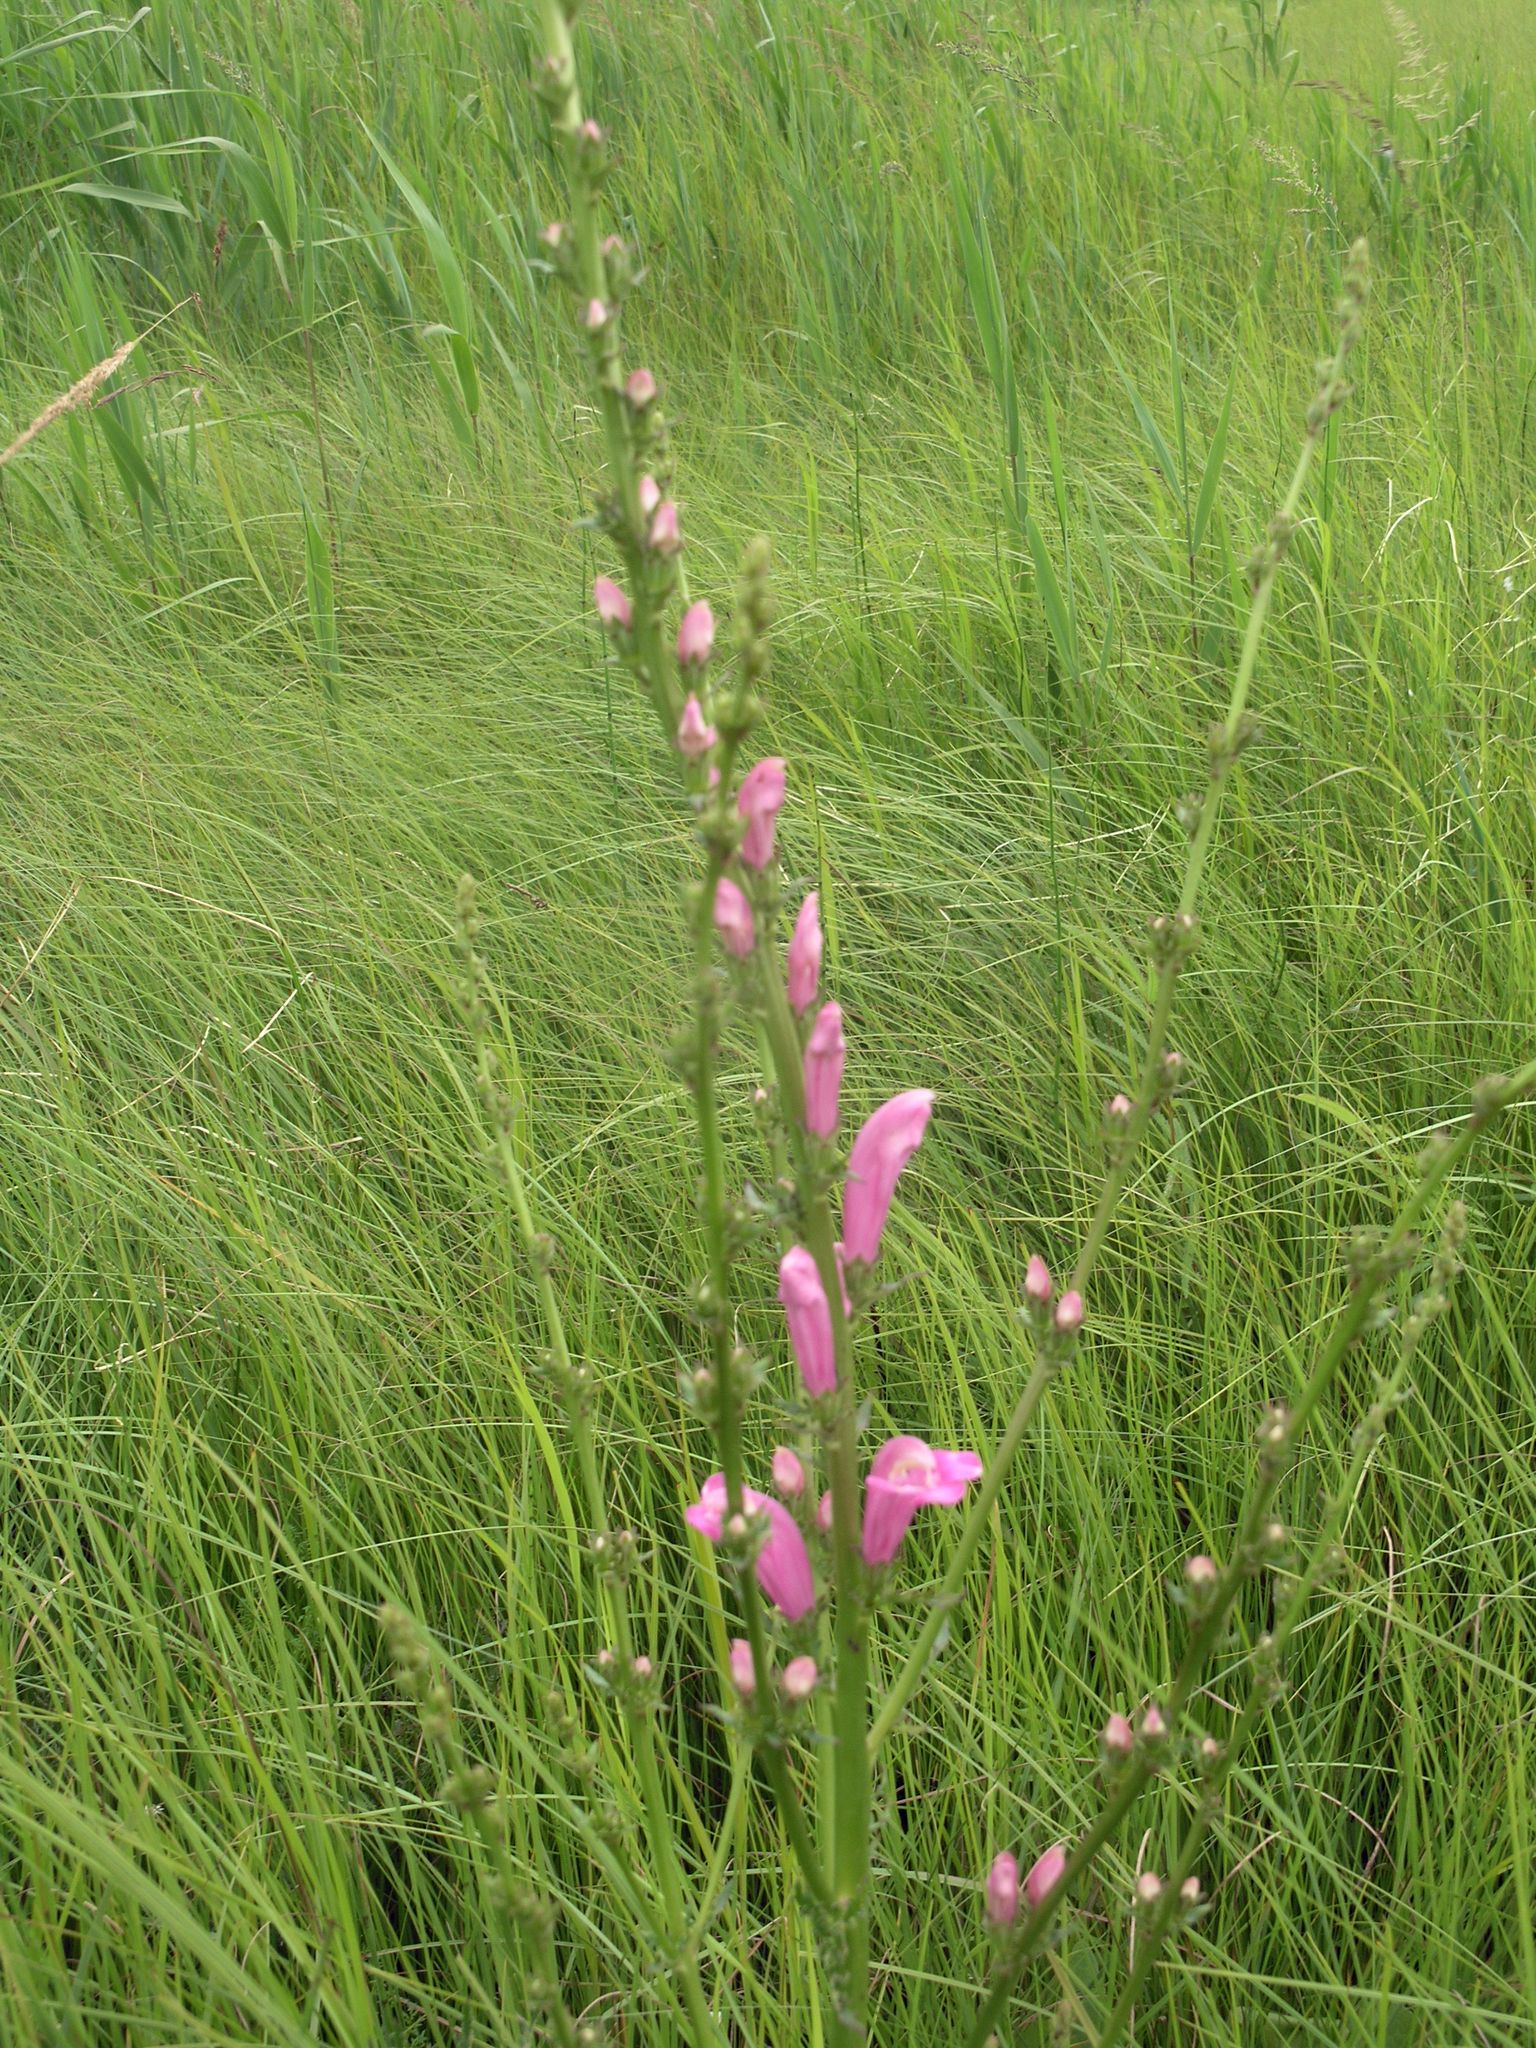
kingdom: Plantae
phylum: Tracheophyta
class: Magnoliopsida
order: Lamiales
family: Orobanchaceae
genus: Pedicularis
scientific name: Pedicularis
